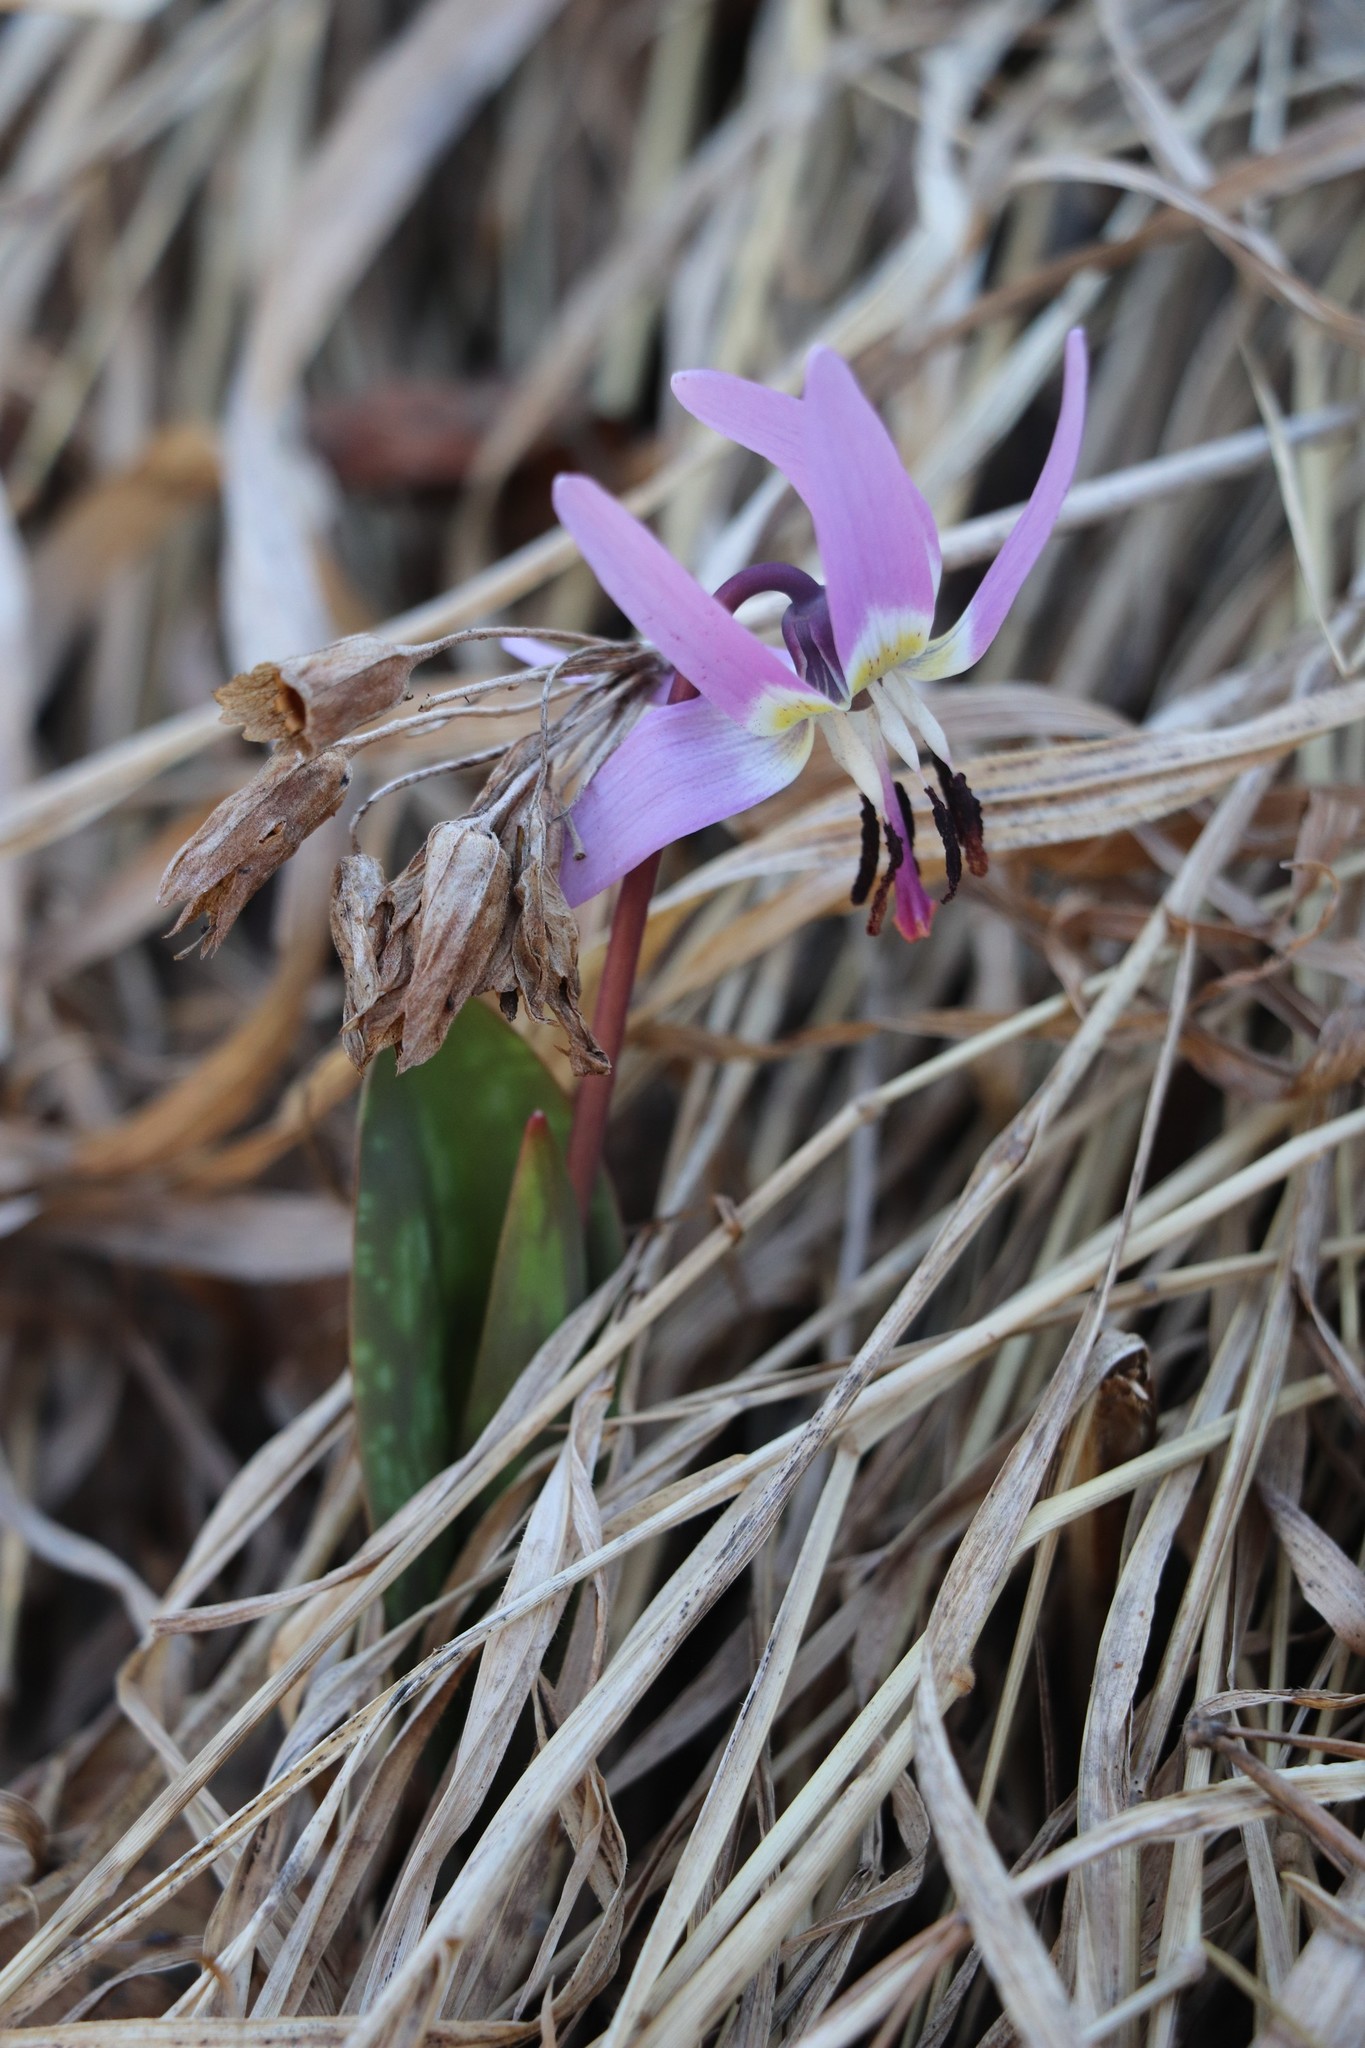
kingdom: Plantae
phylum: Tracheophyta
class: Liliopsida
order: Liliales
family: Liliaceae
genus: Erythronium
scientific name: Erythronium sulevii
